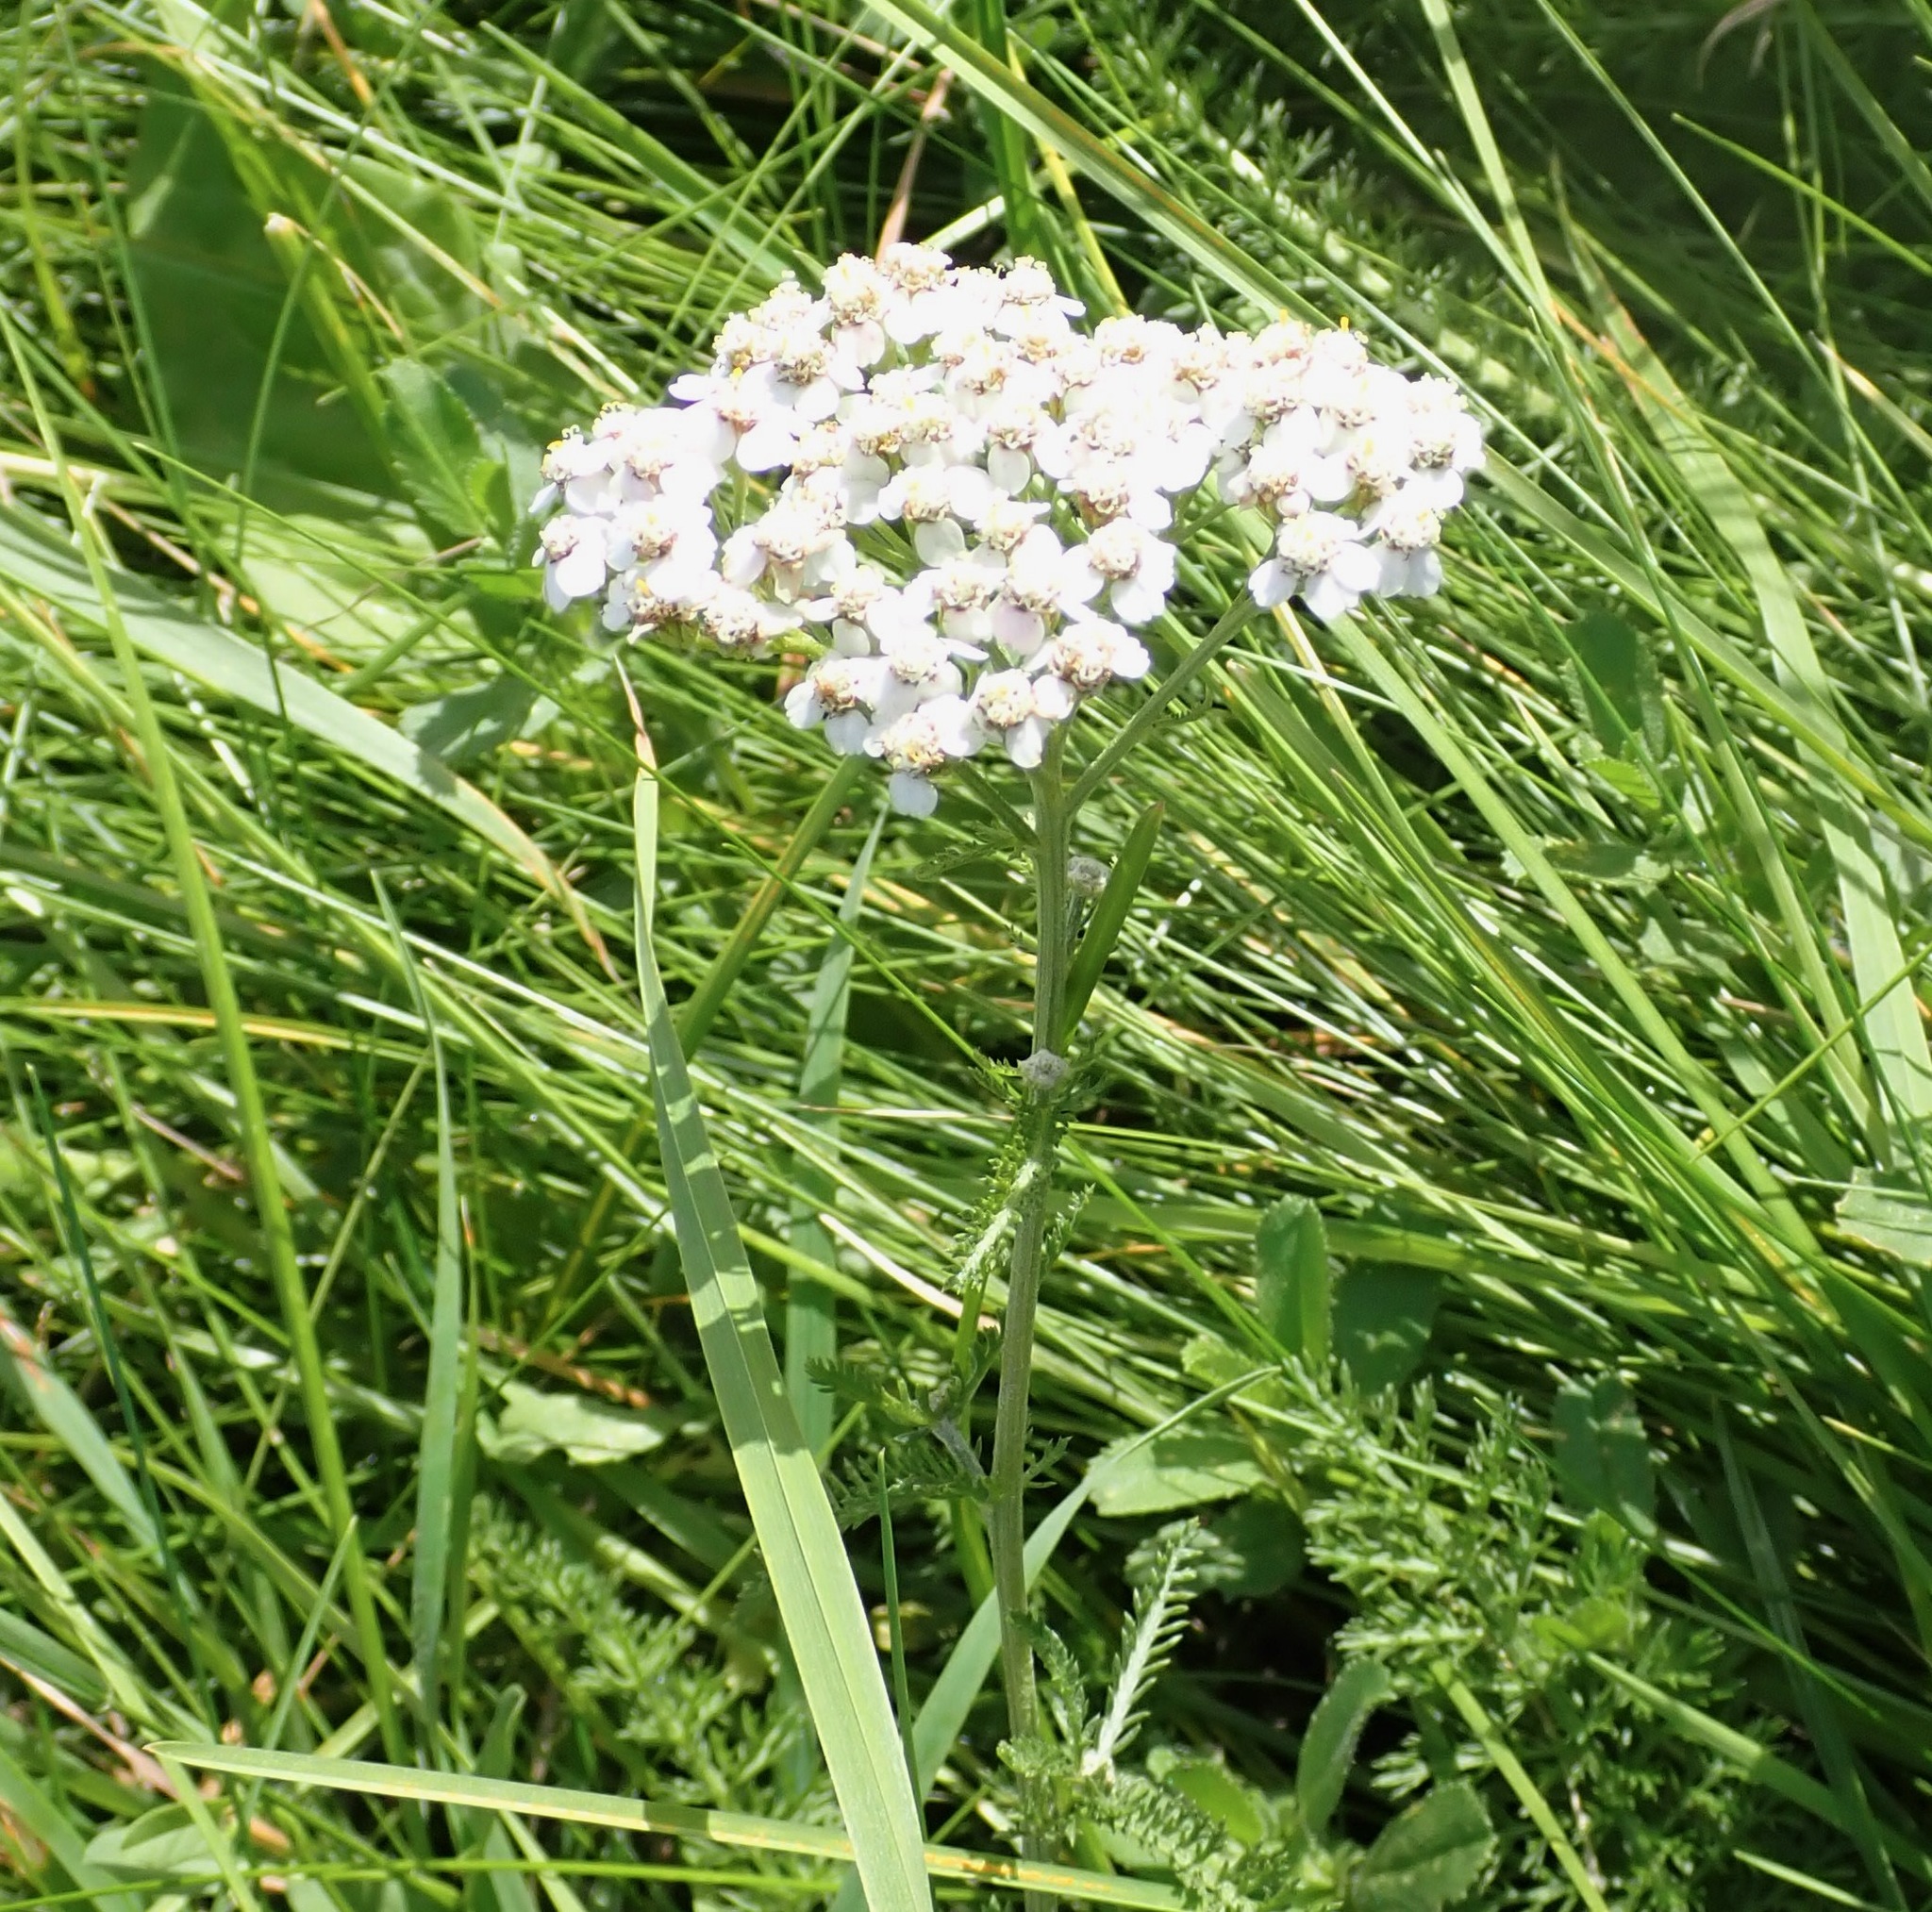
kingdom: Plantae
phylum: Tracheophyta
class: Magnoliopsida
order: Asterales
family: Asteraceae
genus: Achillea
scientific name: Achillea millefolium
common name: Yarrow
